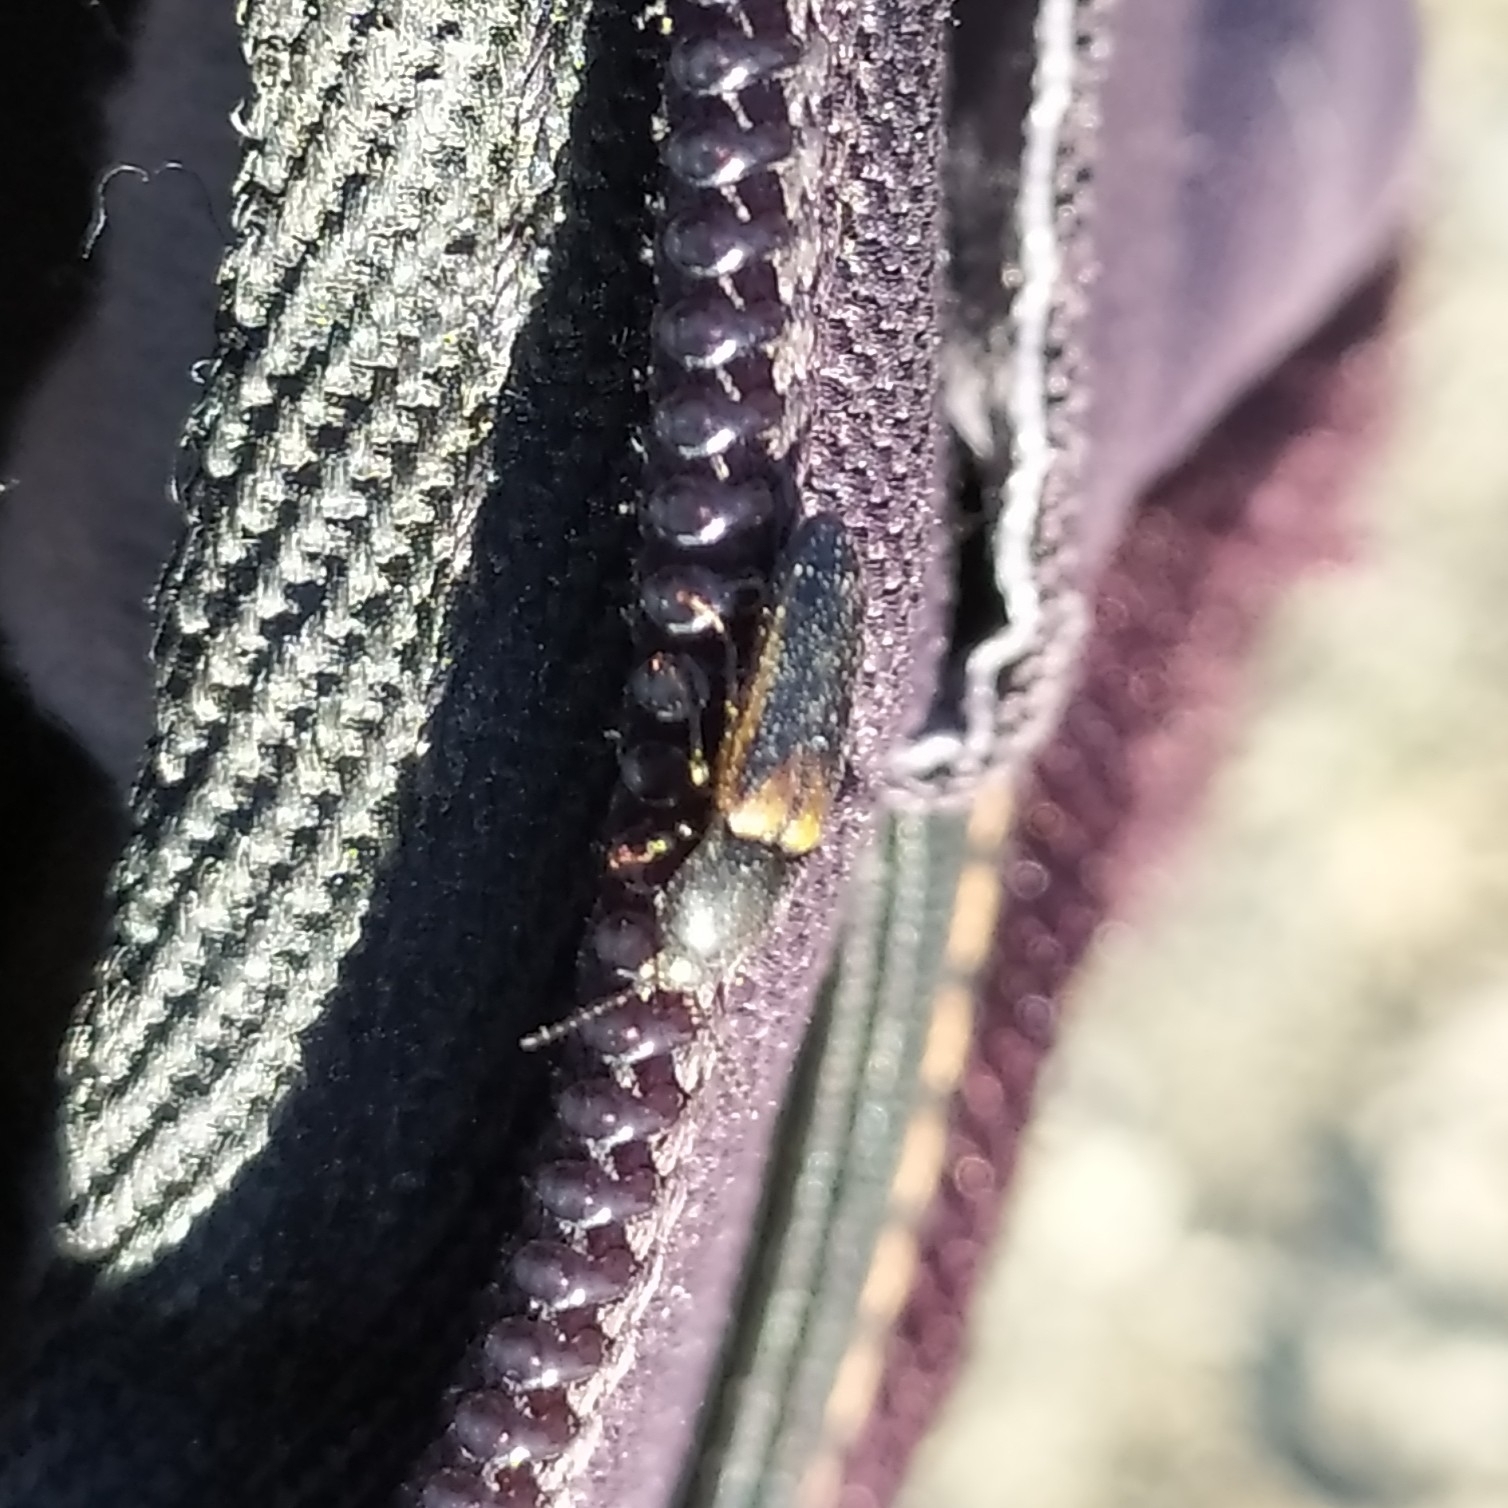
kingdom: Animalia
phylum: Arthropoda
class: Insecta
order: Coleoptera
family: Elateridae
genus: Ampedus
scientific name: Ampedus tristis
